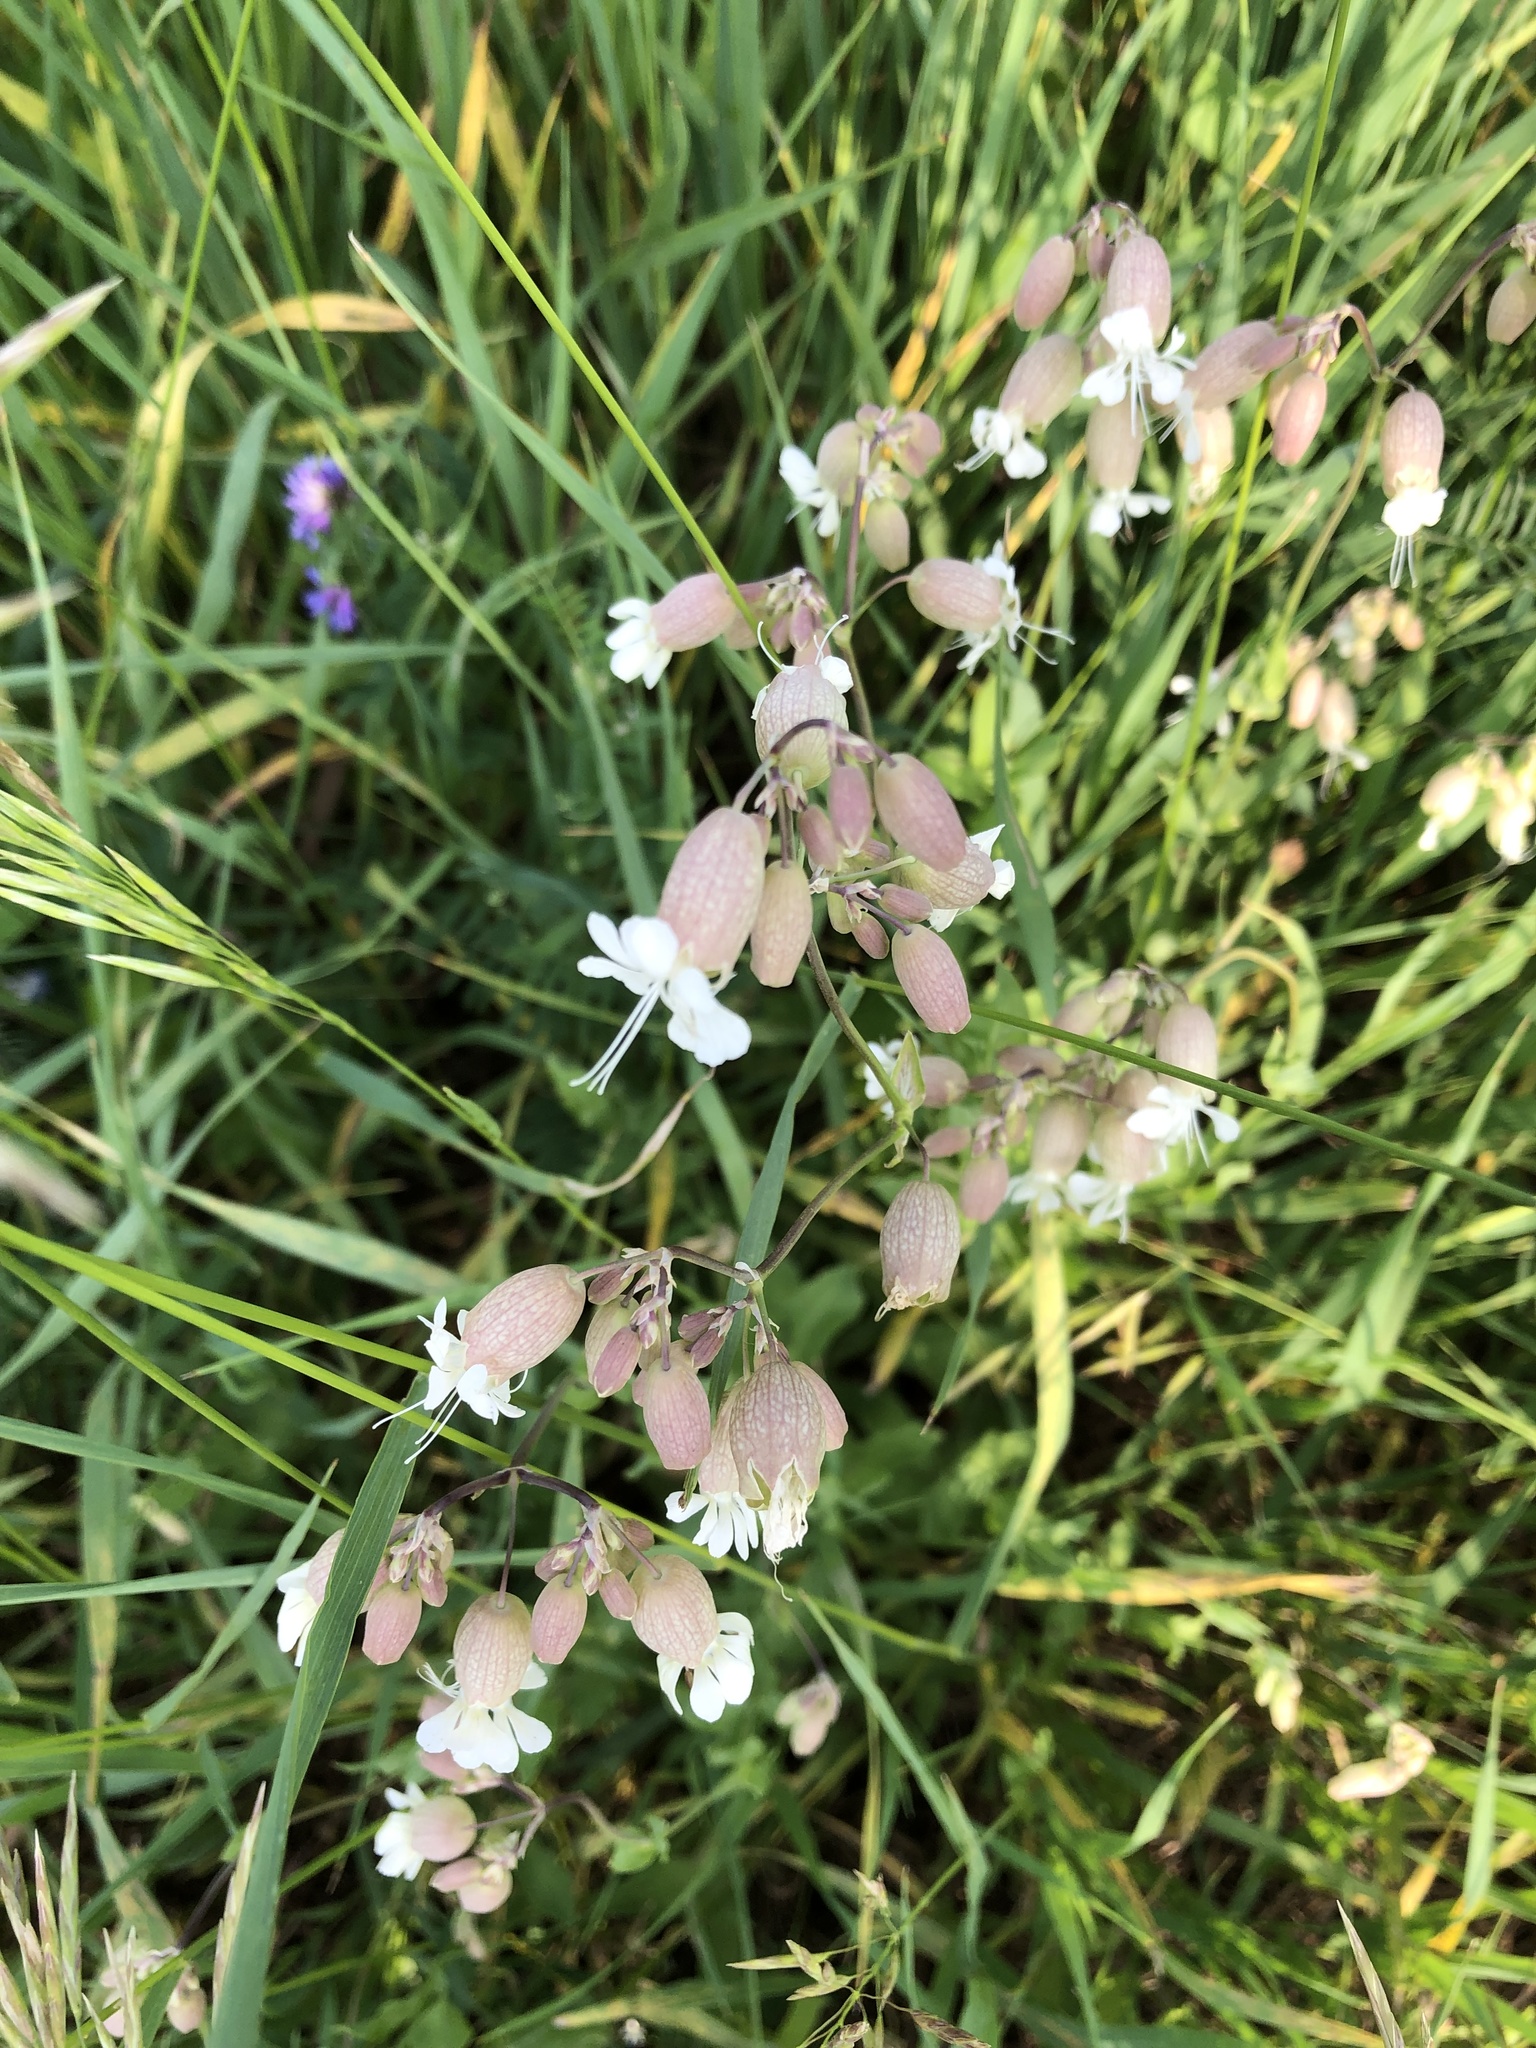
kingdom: Plantae
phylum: Tracheophyta
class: Magnoliopsida
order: Caryophyllales
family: Caryophyllaceae
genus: Silene
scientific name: Silene vulgaris
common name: Bladder campion
